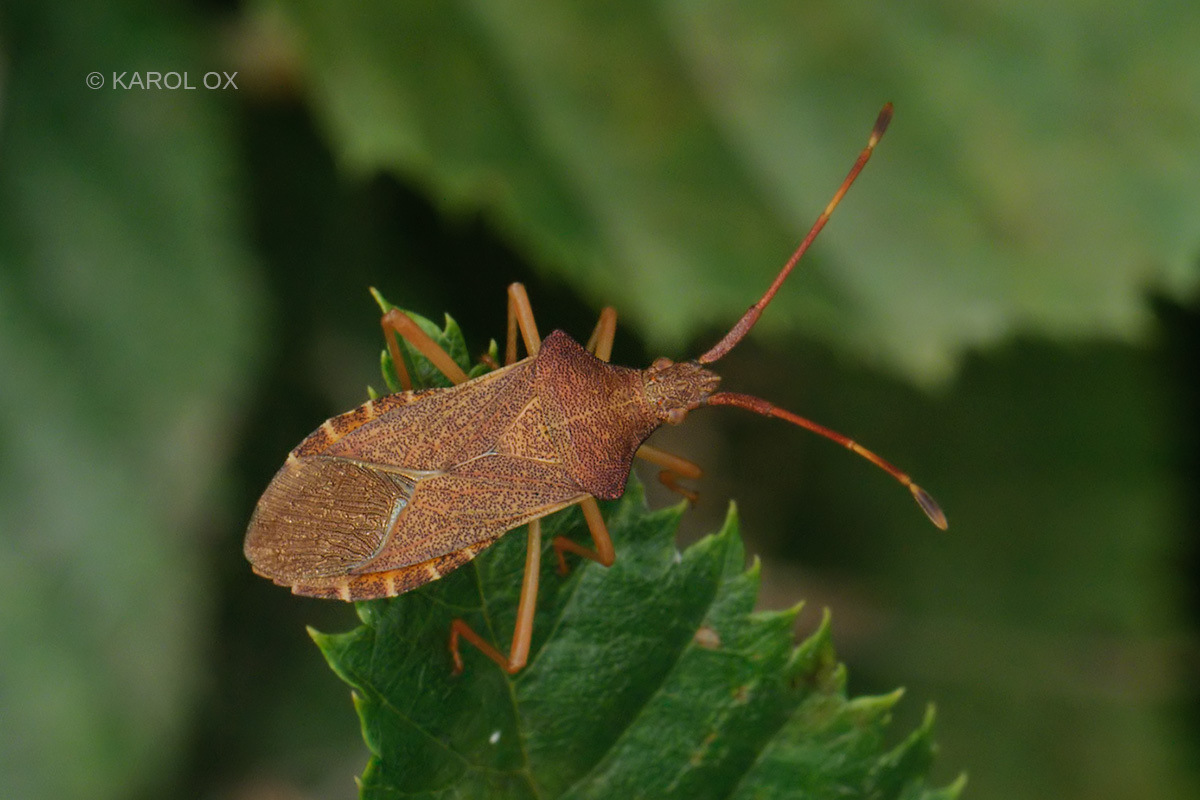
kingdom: Animalia
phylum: Arthropoda
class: Insecta
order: Hemiptera
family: Coreidae
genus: Gonocerus
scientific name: Gonocerus acuteangulatus
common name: Box bug
